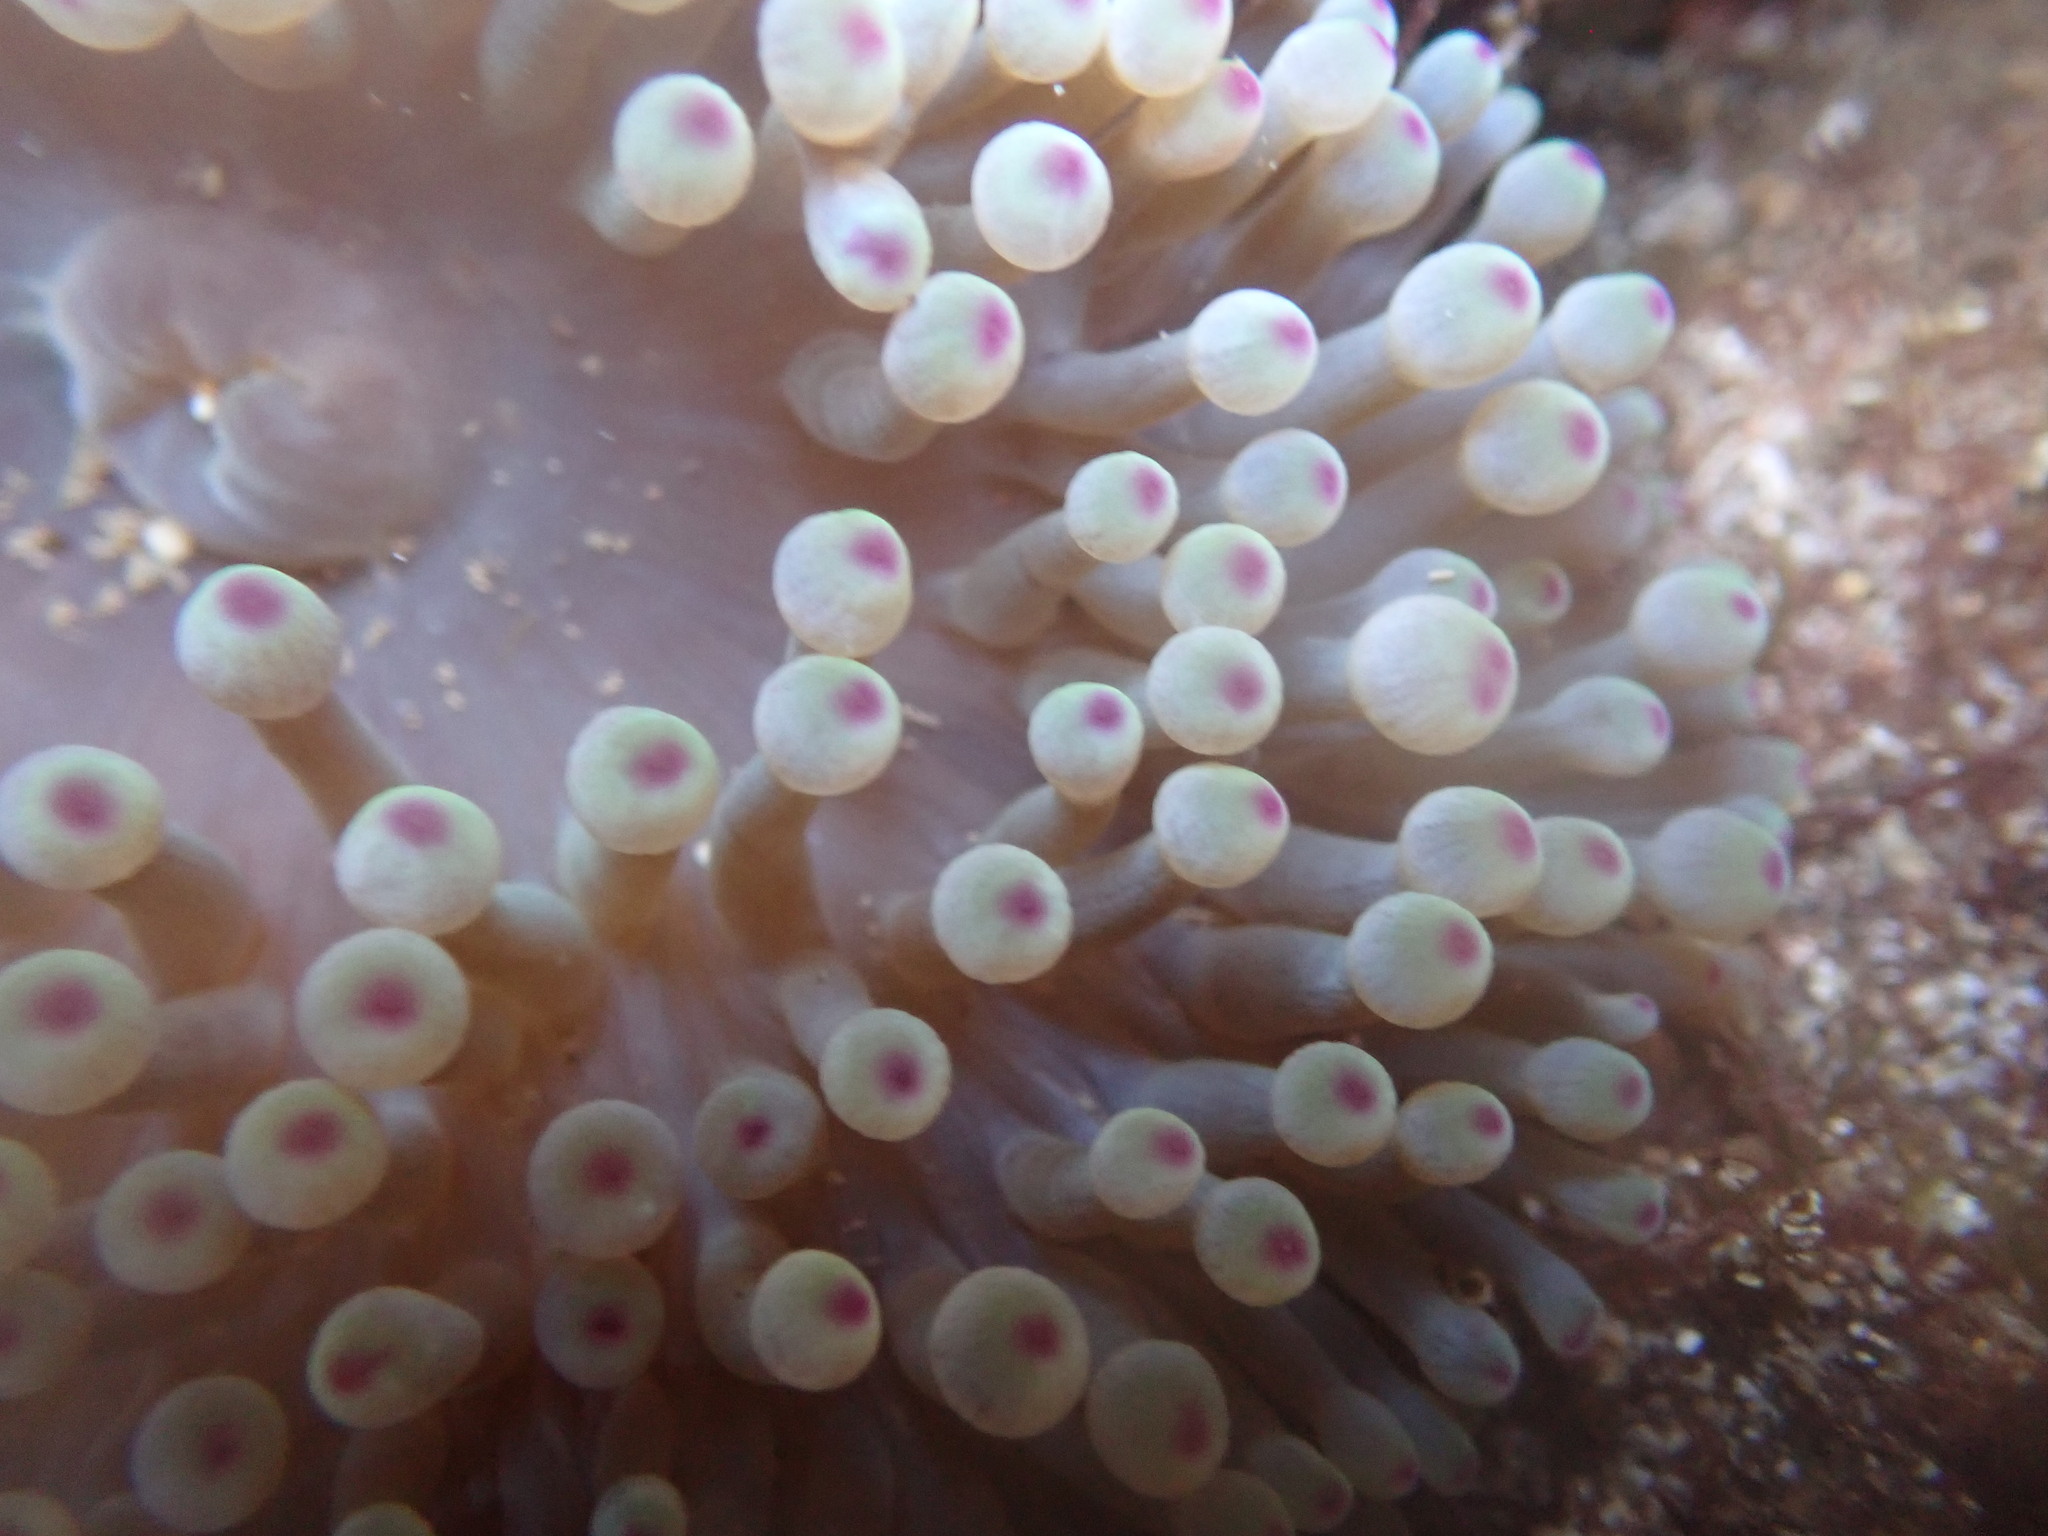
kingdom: Animalia
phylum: Cnidaria
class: Anthozoa
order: Actiniaria
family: Actiniidae
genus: Entacmaea
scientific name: Entacmaea quadricolor
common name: Bulb tentacle sea anemone
